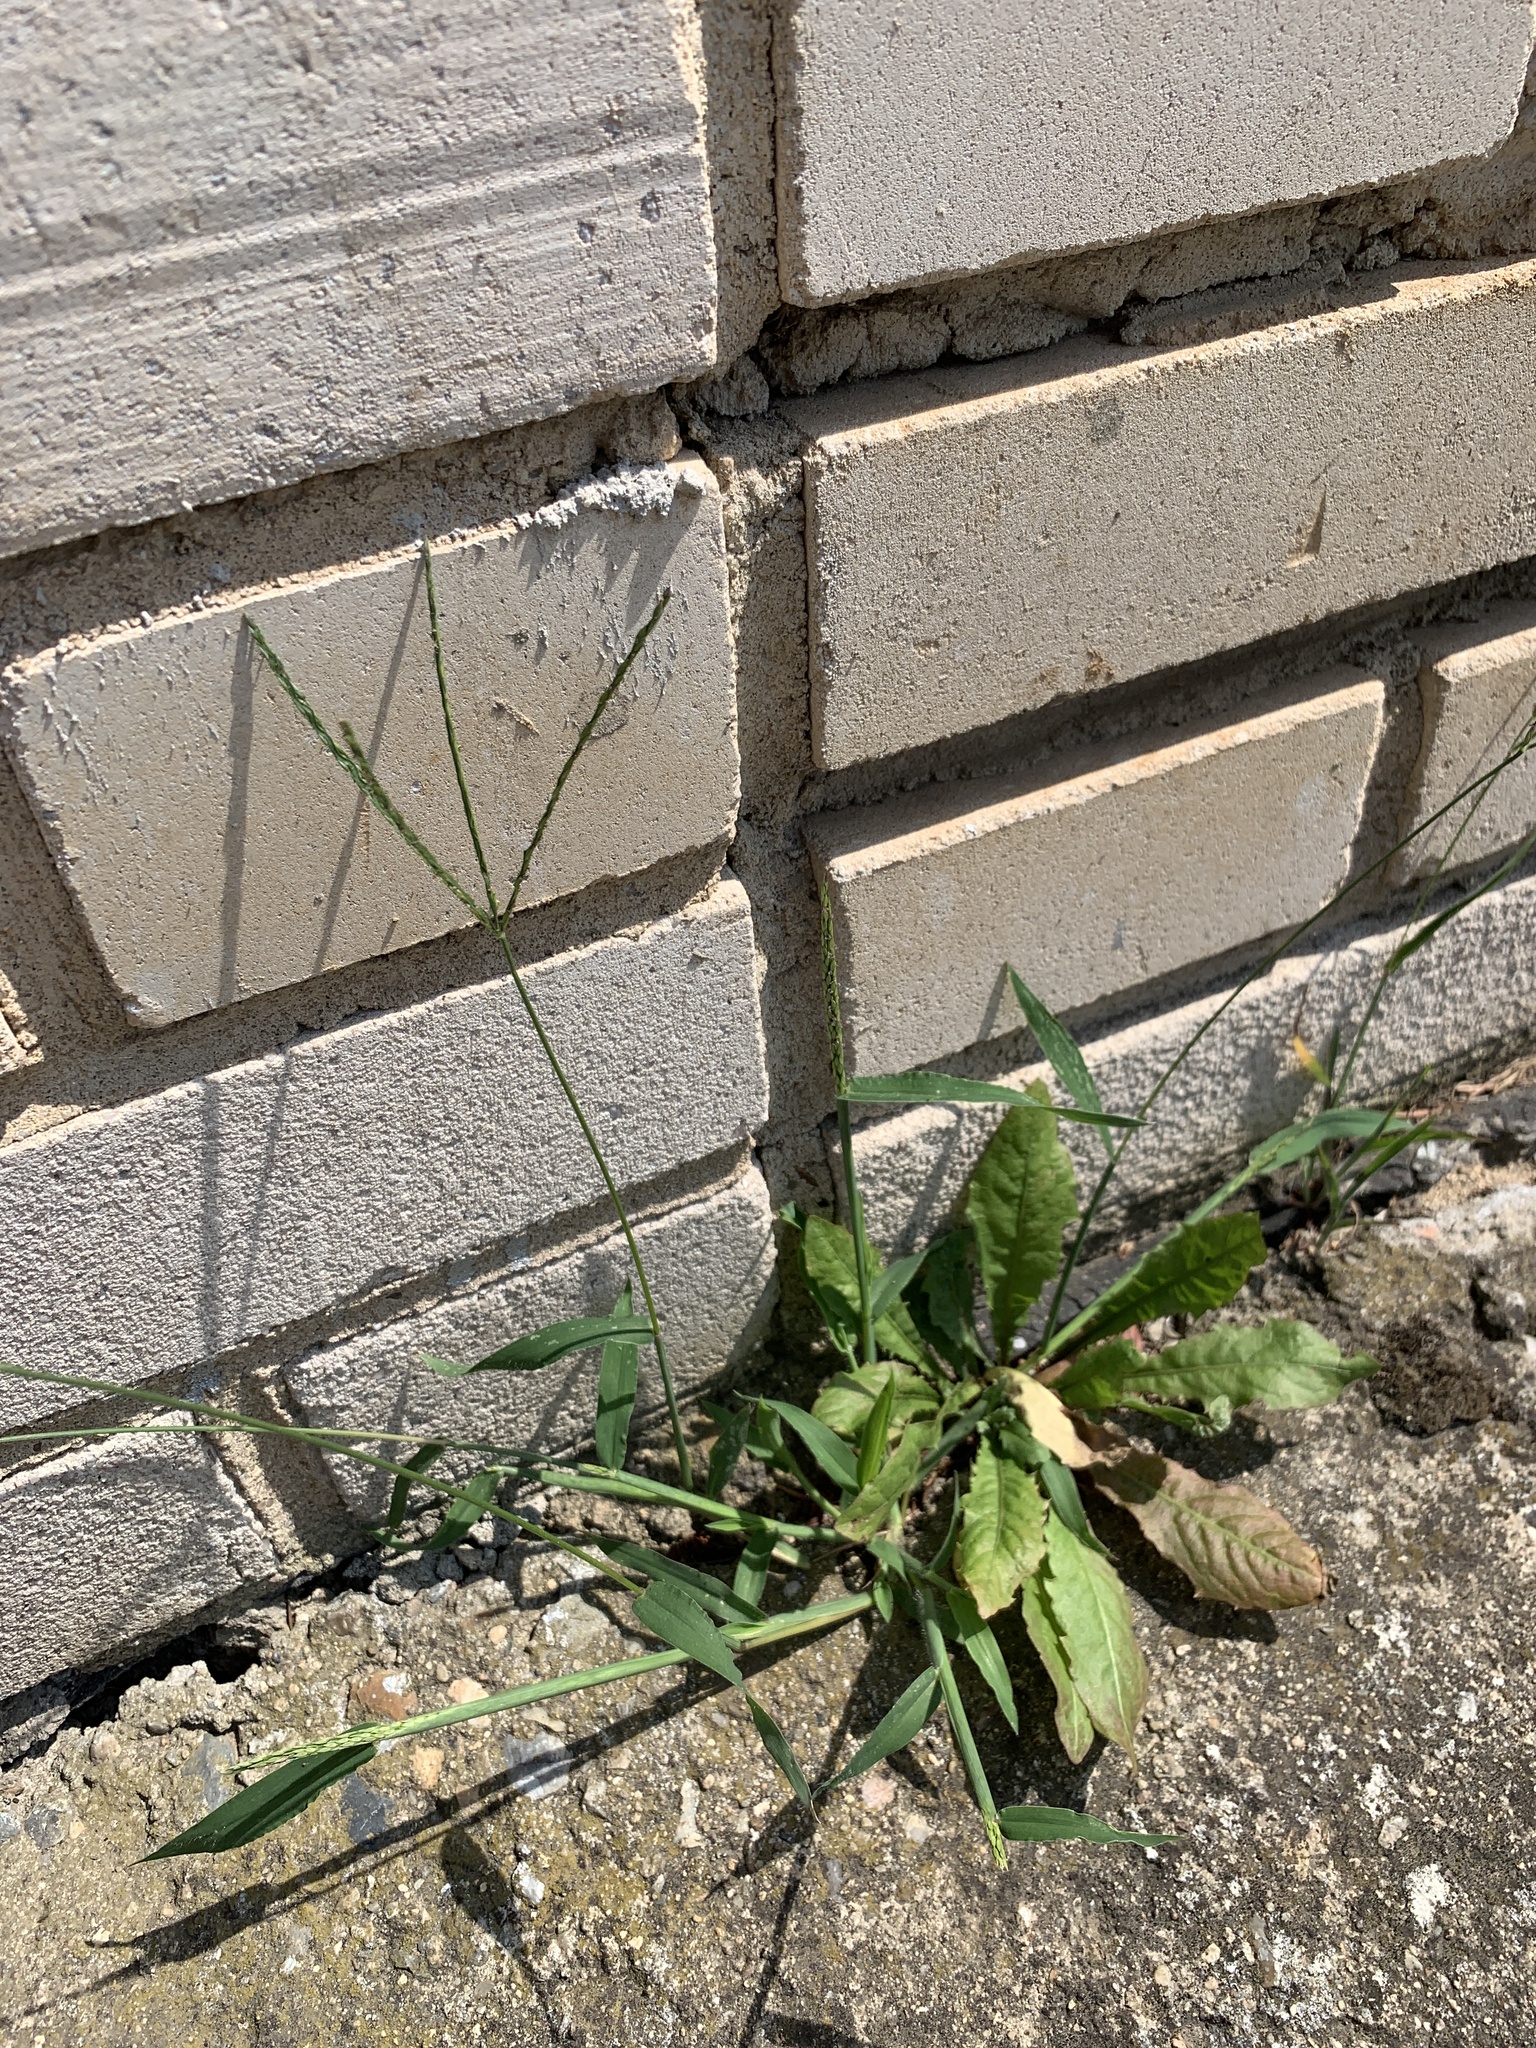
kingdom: Plantae
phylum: Tracheophyta
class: Liliopsida
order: Poales
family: Poaceae
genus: Digitaria
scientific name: Digitaria sanguinalis
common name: Hairy crabgrass
